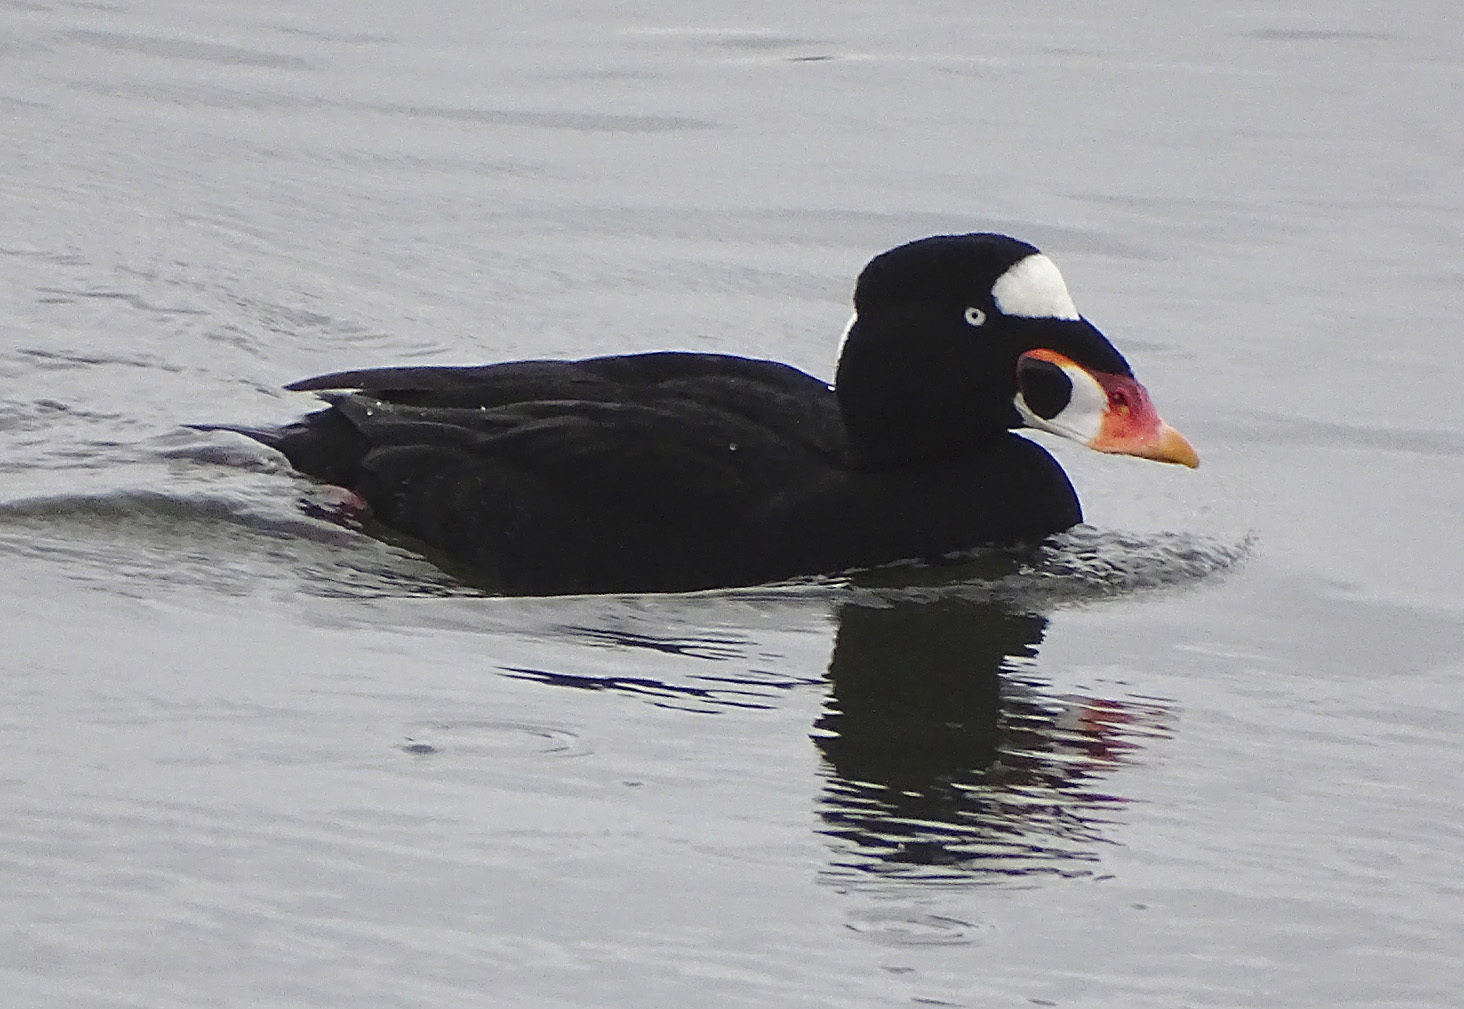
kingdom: Animalia
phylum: Chordata
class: Aves
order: Anseriformes
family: Anatidae
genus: Melanitta
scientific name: Melanitta perspicillata
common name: Surf scoter
